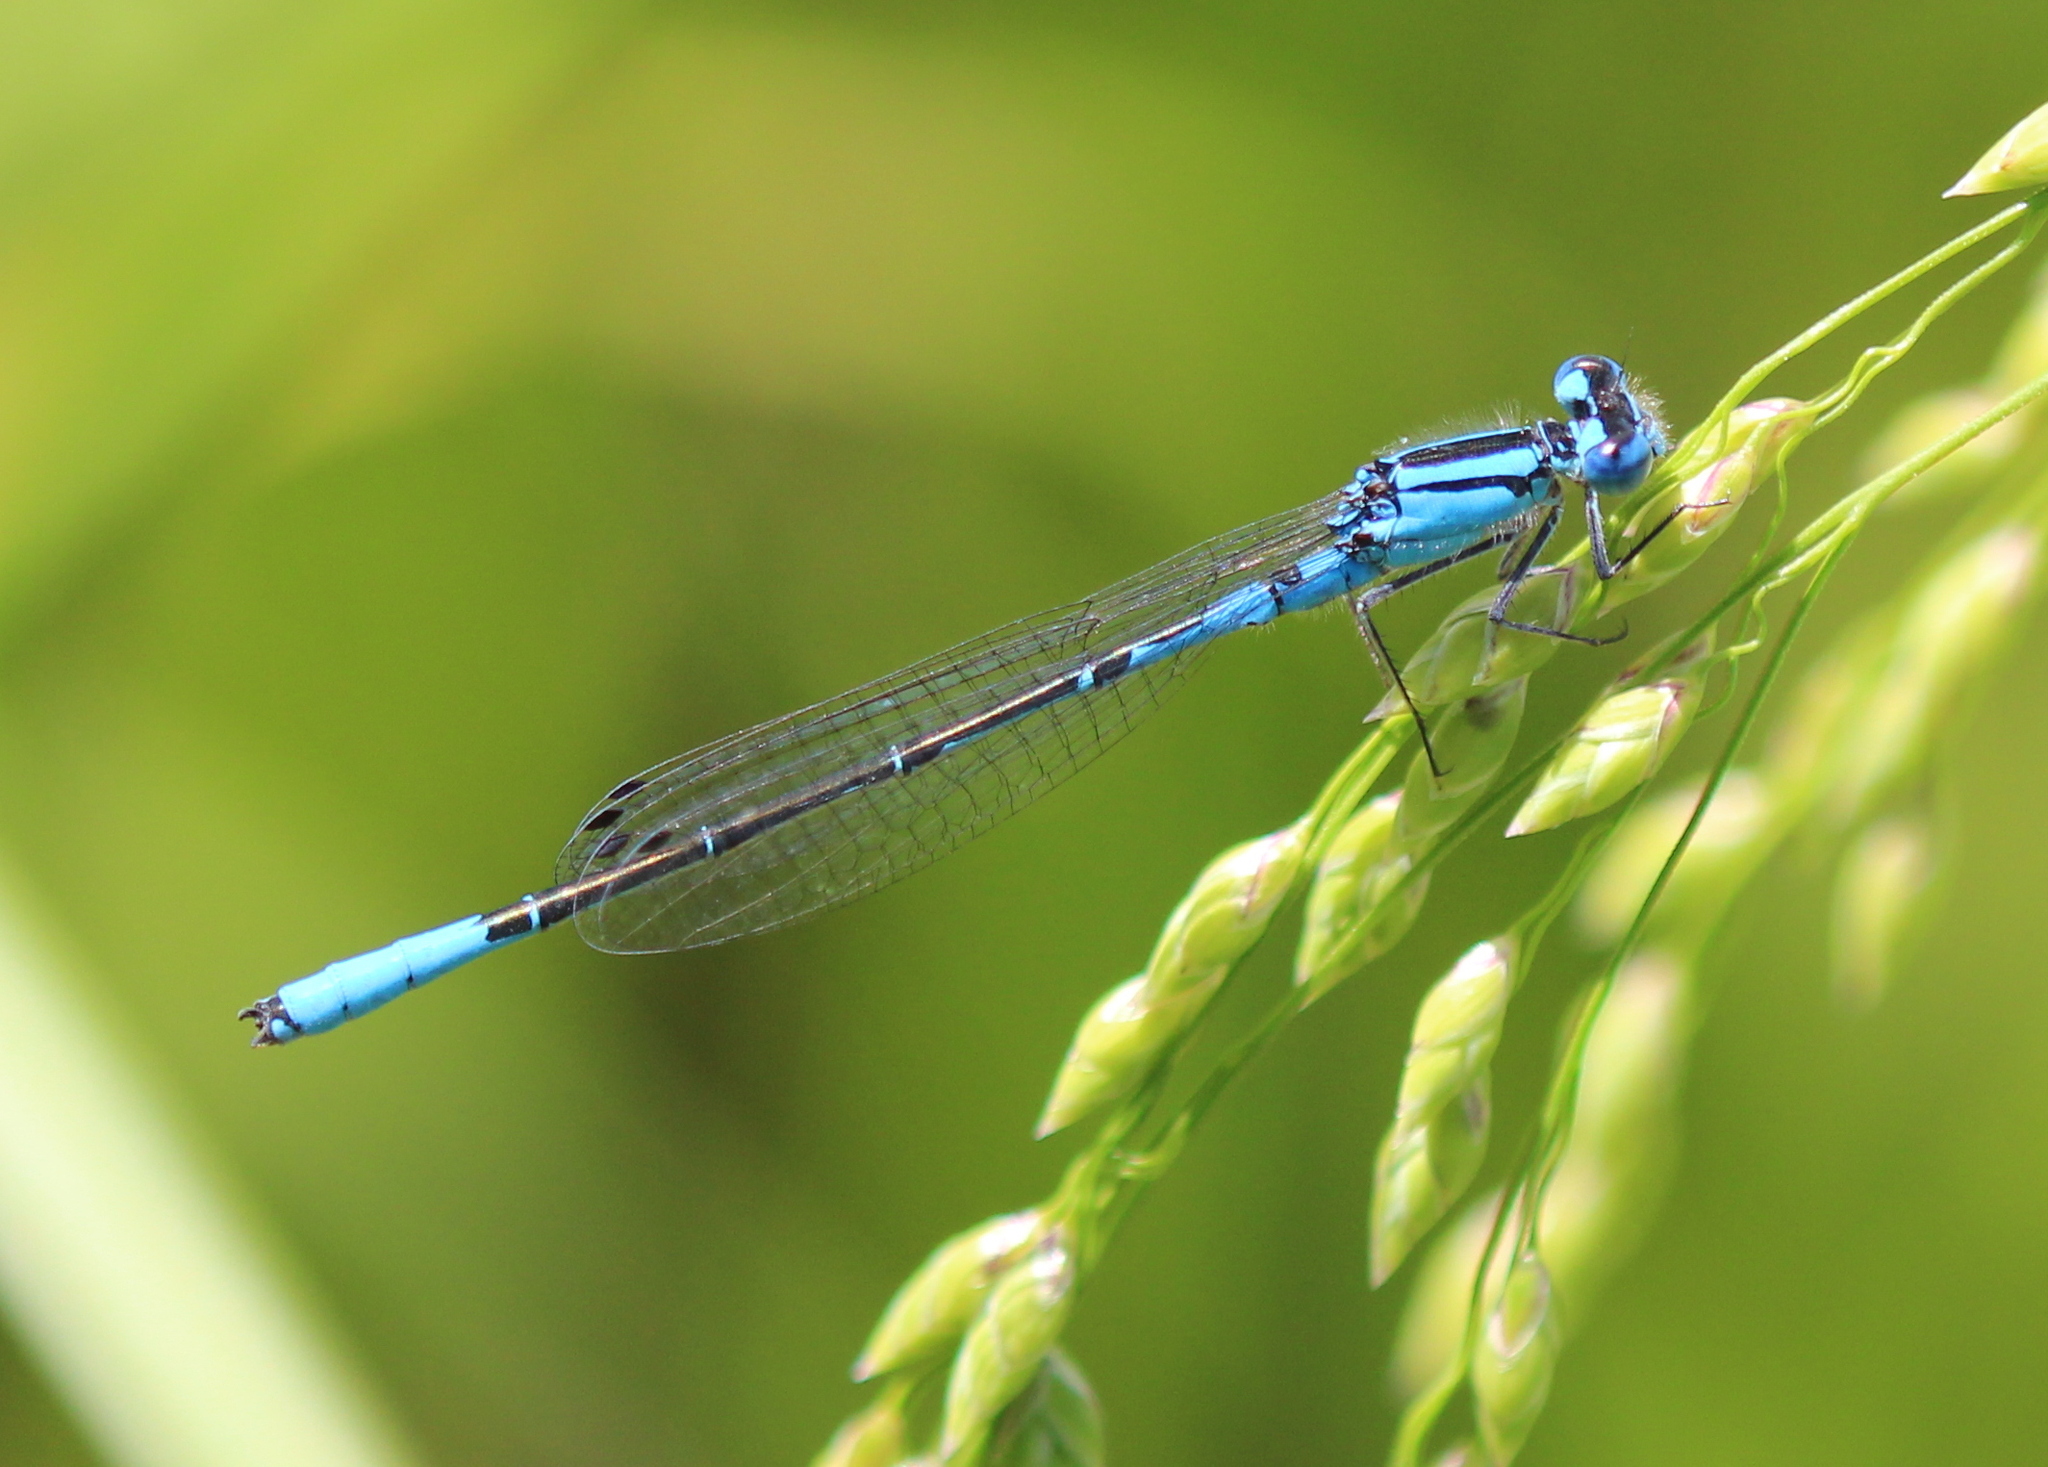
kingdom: Animalia
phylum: Arthropoda
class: Insecta
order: Odonata
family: Coenagrionidae
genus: Enallagma
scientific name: Enallagma aspersum
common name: Azure bluet
